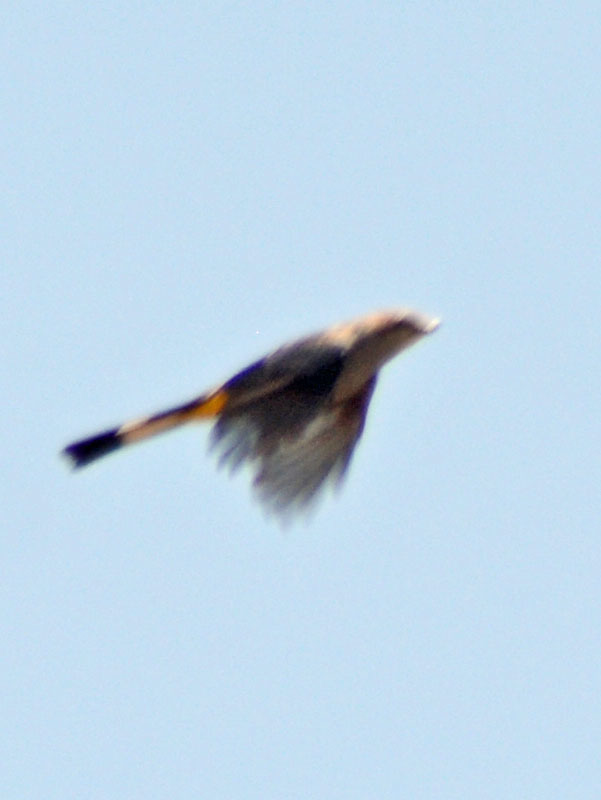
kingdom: Animalia
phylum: Chordata
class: Aves
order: Passeriformes
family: Ptilogonatidae
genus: Ptilogonys
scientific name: Ptilogonys cinereus
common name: Gray silky-flycatcher
